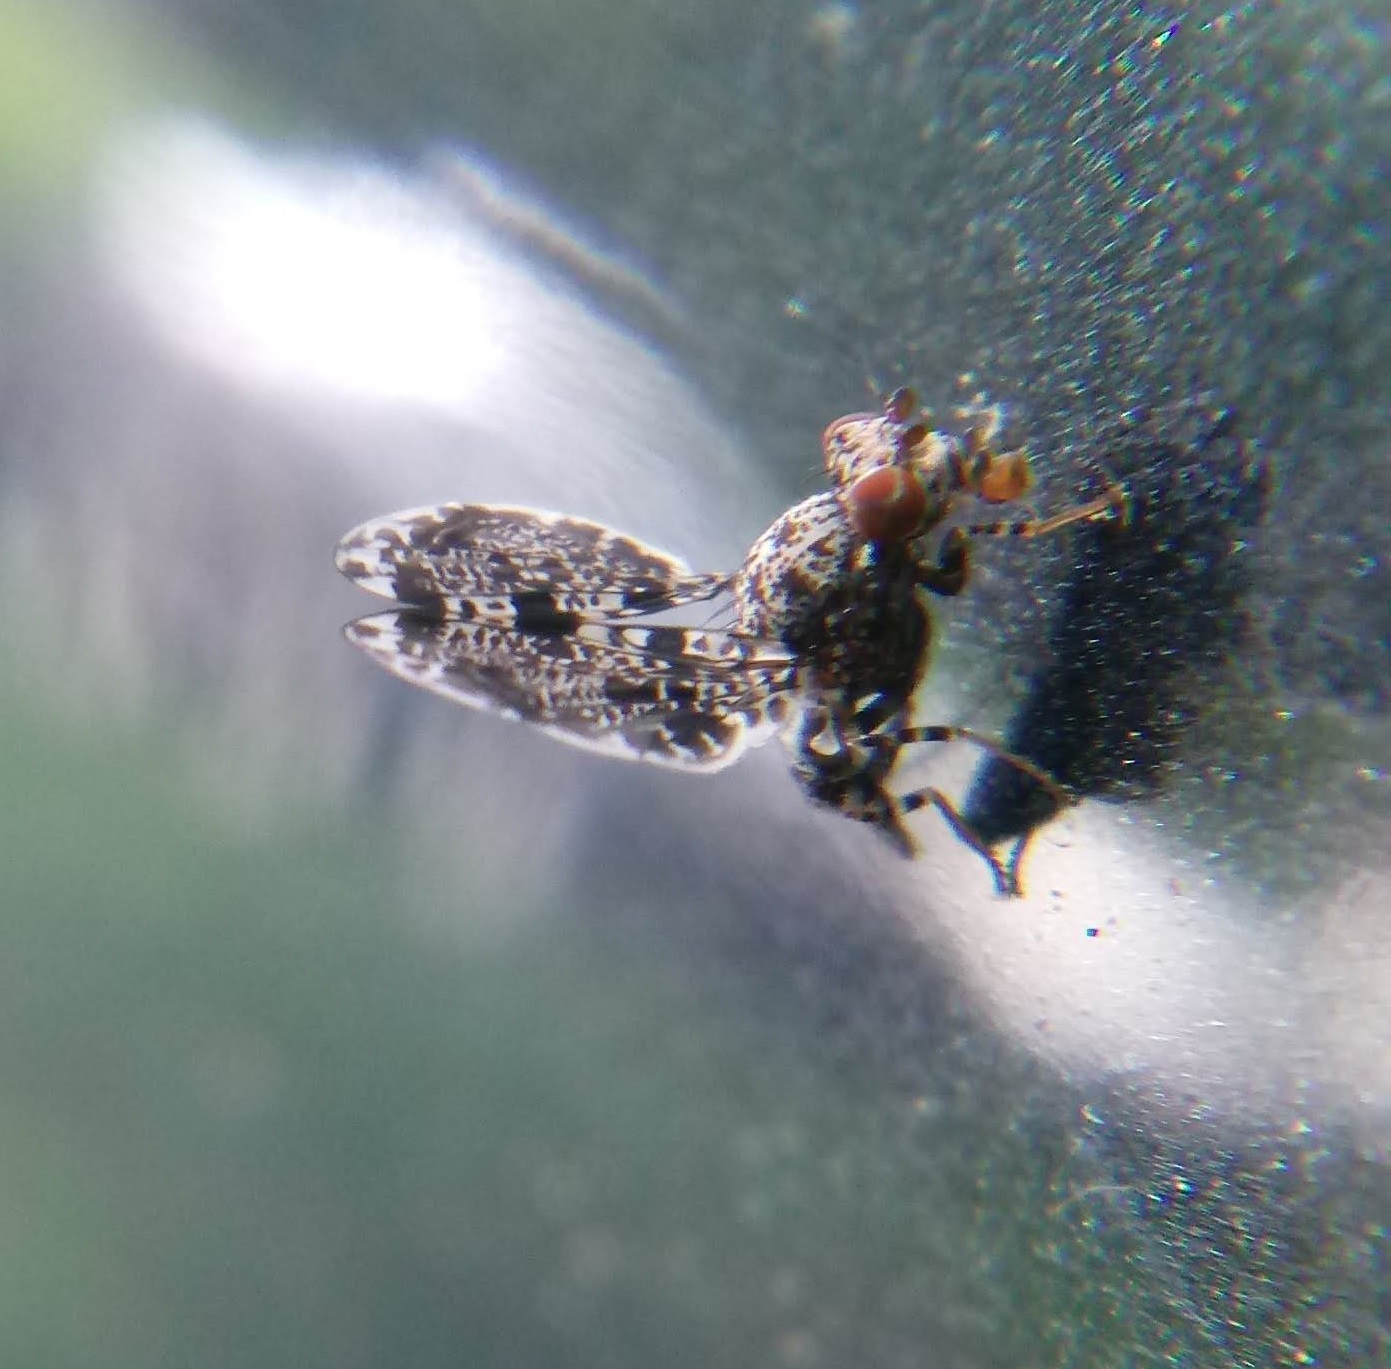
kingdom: Animalia
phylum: Arthropoda
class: Insecta
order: Diptera
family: Ulidiidae
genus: Callopistromyia
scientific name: Callopistromyia annulipes
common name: Peacock fly
